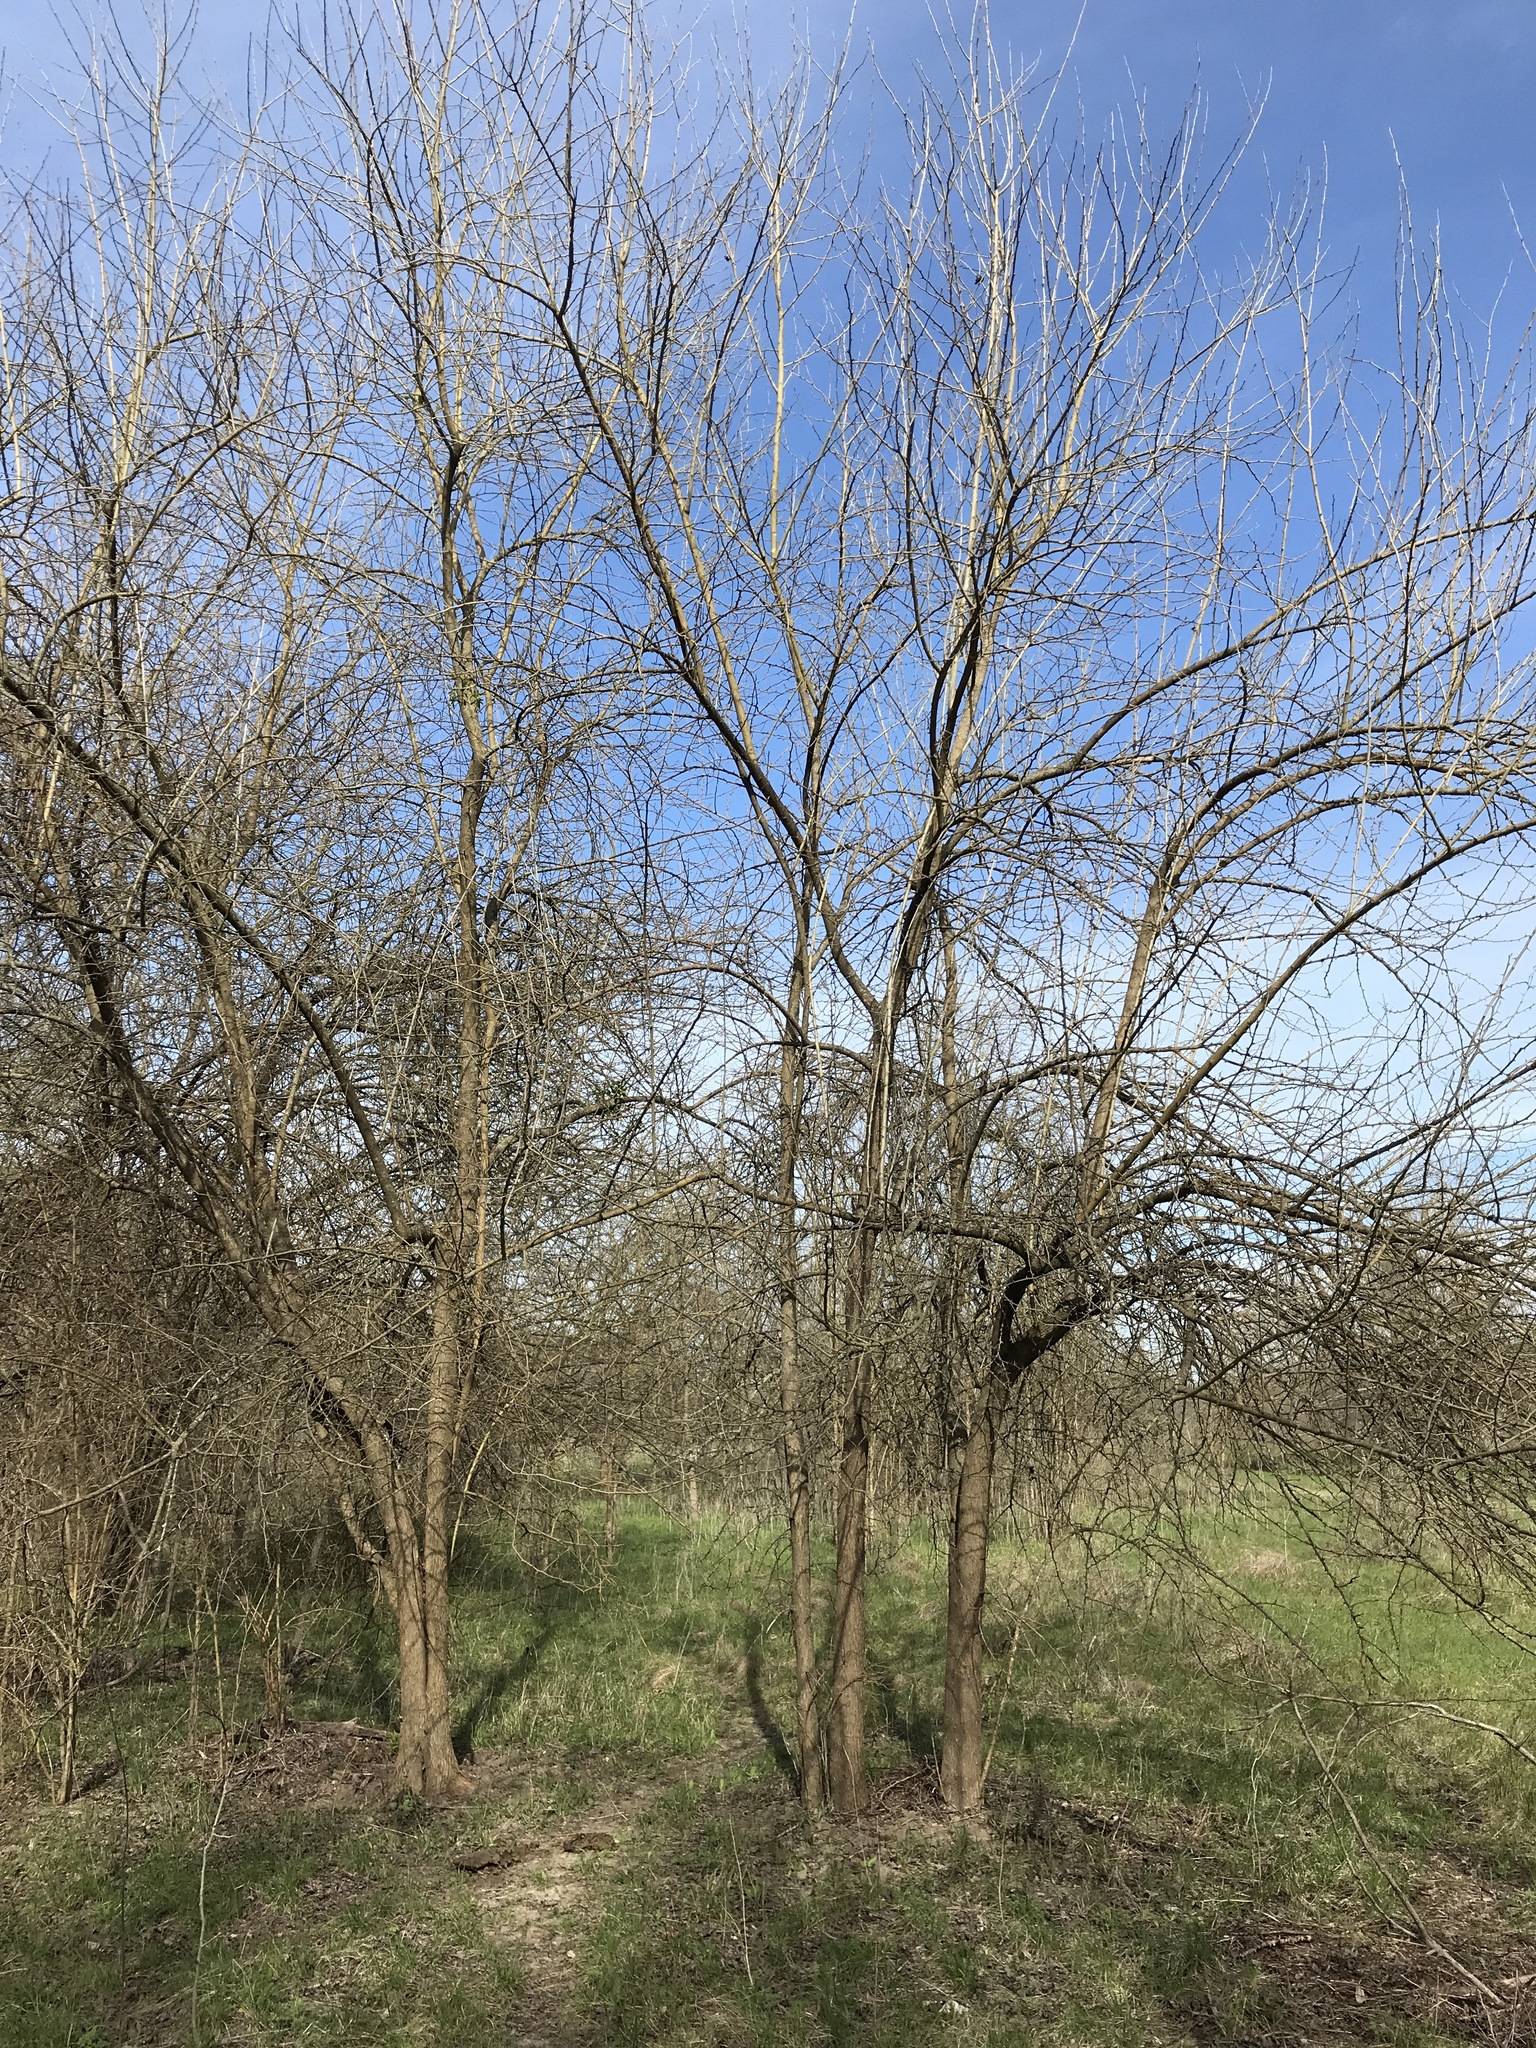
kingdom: Plantae
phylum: Tracheophyta
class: Magnoliopsida
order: Rosales
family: Moraceae
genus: Maclura
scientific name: Maclura pomifera
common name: Osage-orange
